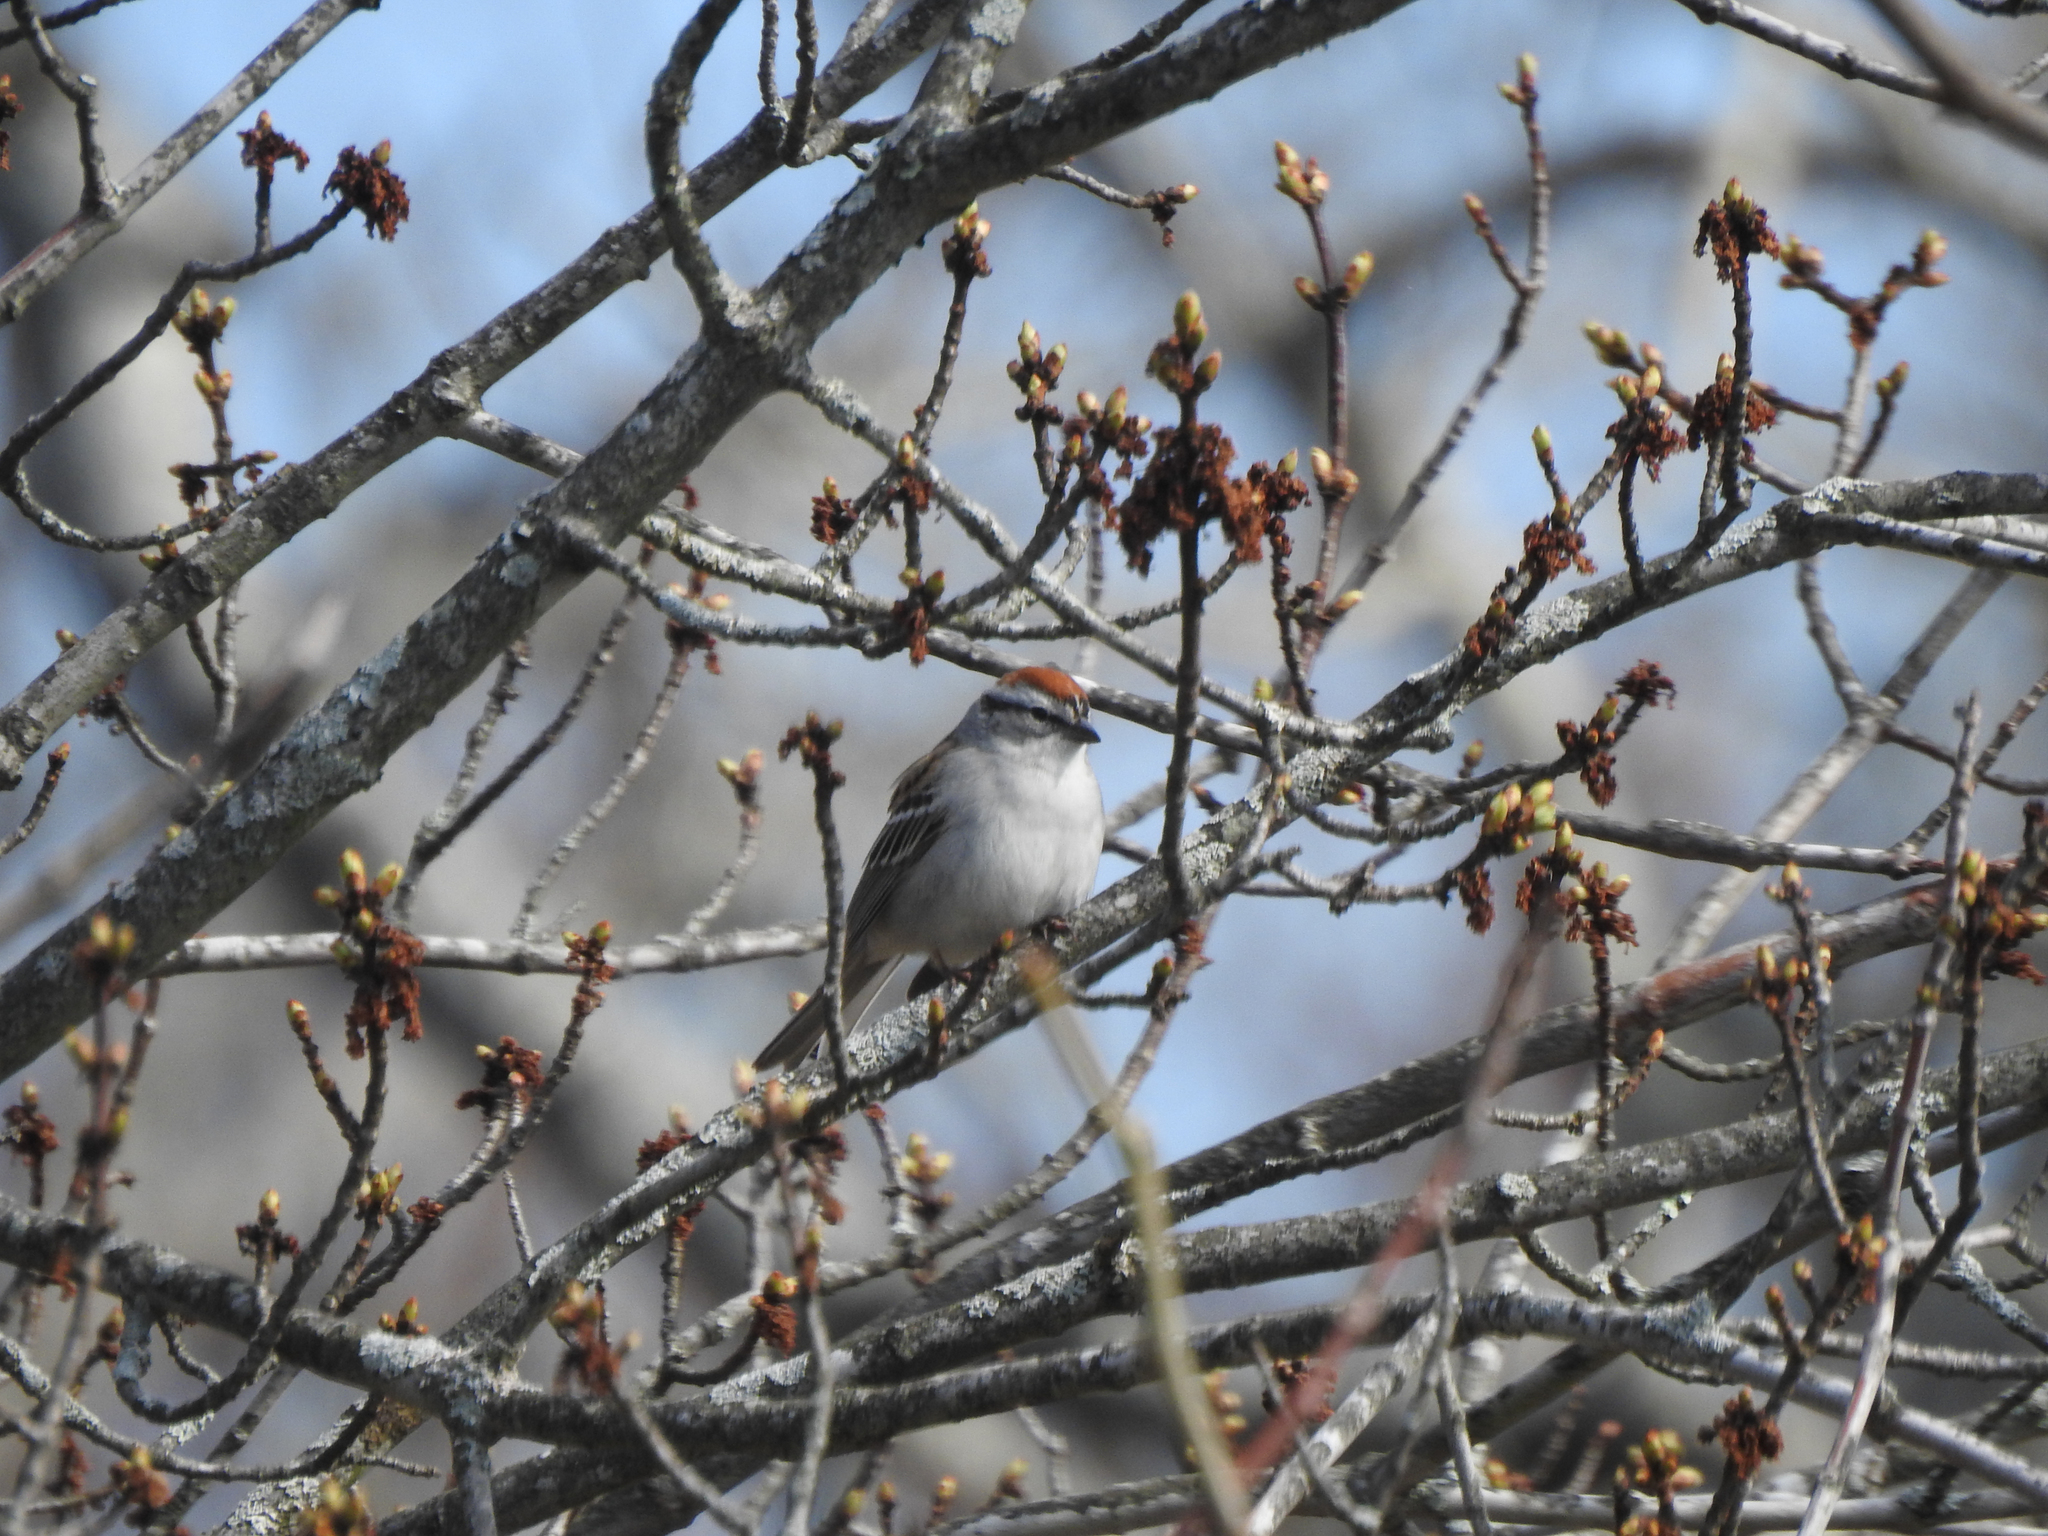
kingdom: Animalia
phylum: Chordata
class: Aves
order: Passeriformes
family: Passerellidae
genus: Spizella
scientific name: Spizella passerina
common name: Chipping sparrow
